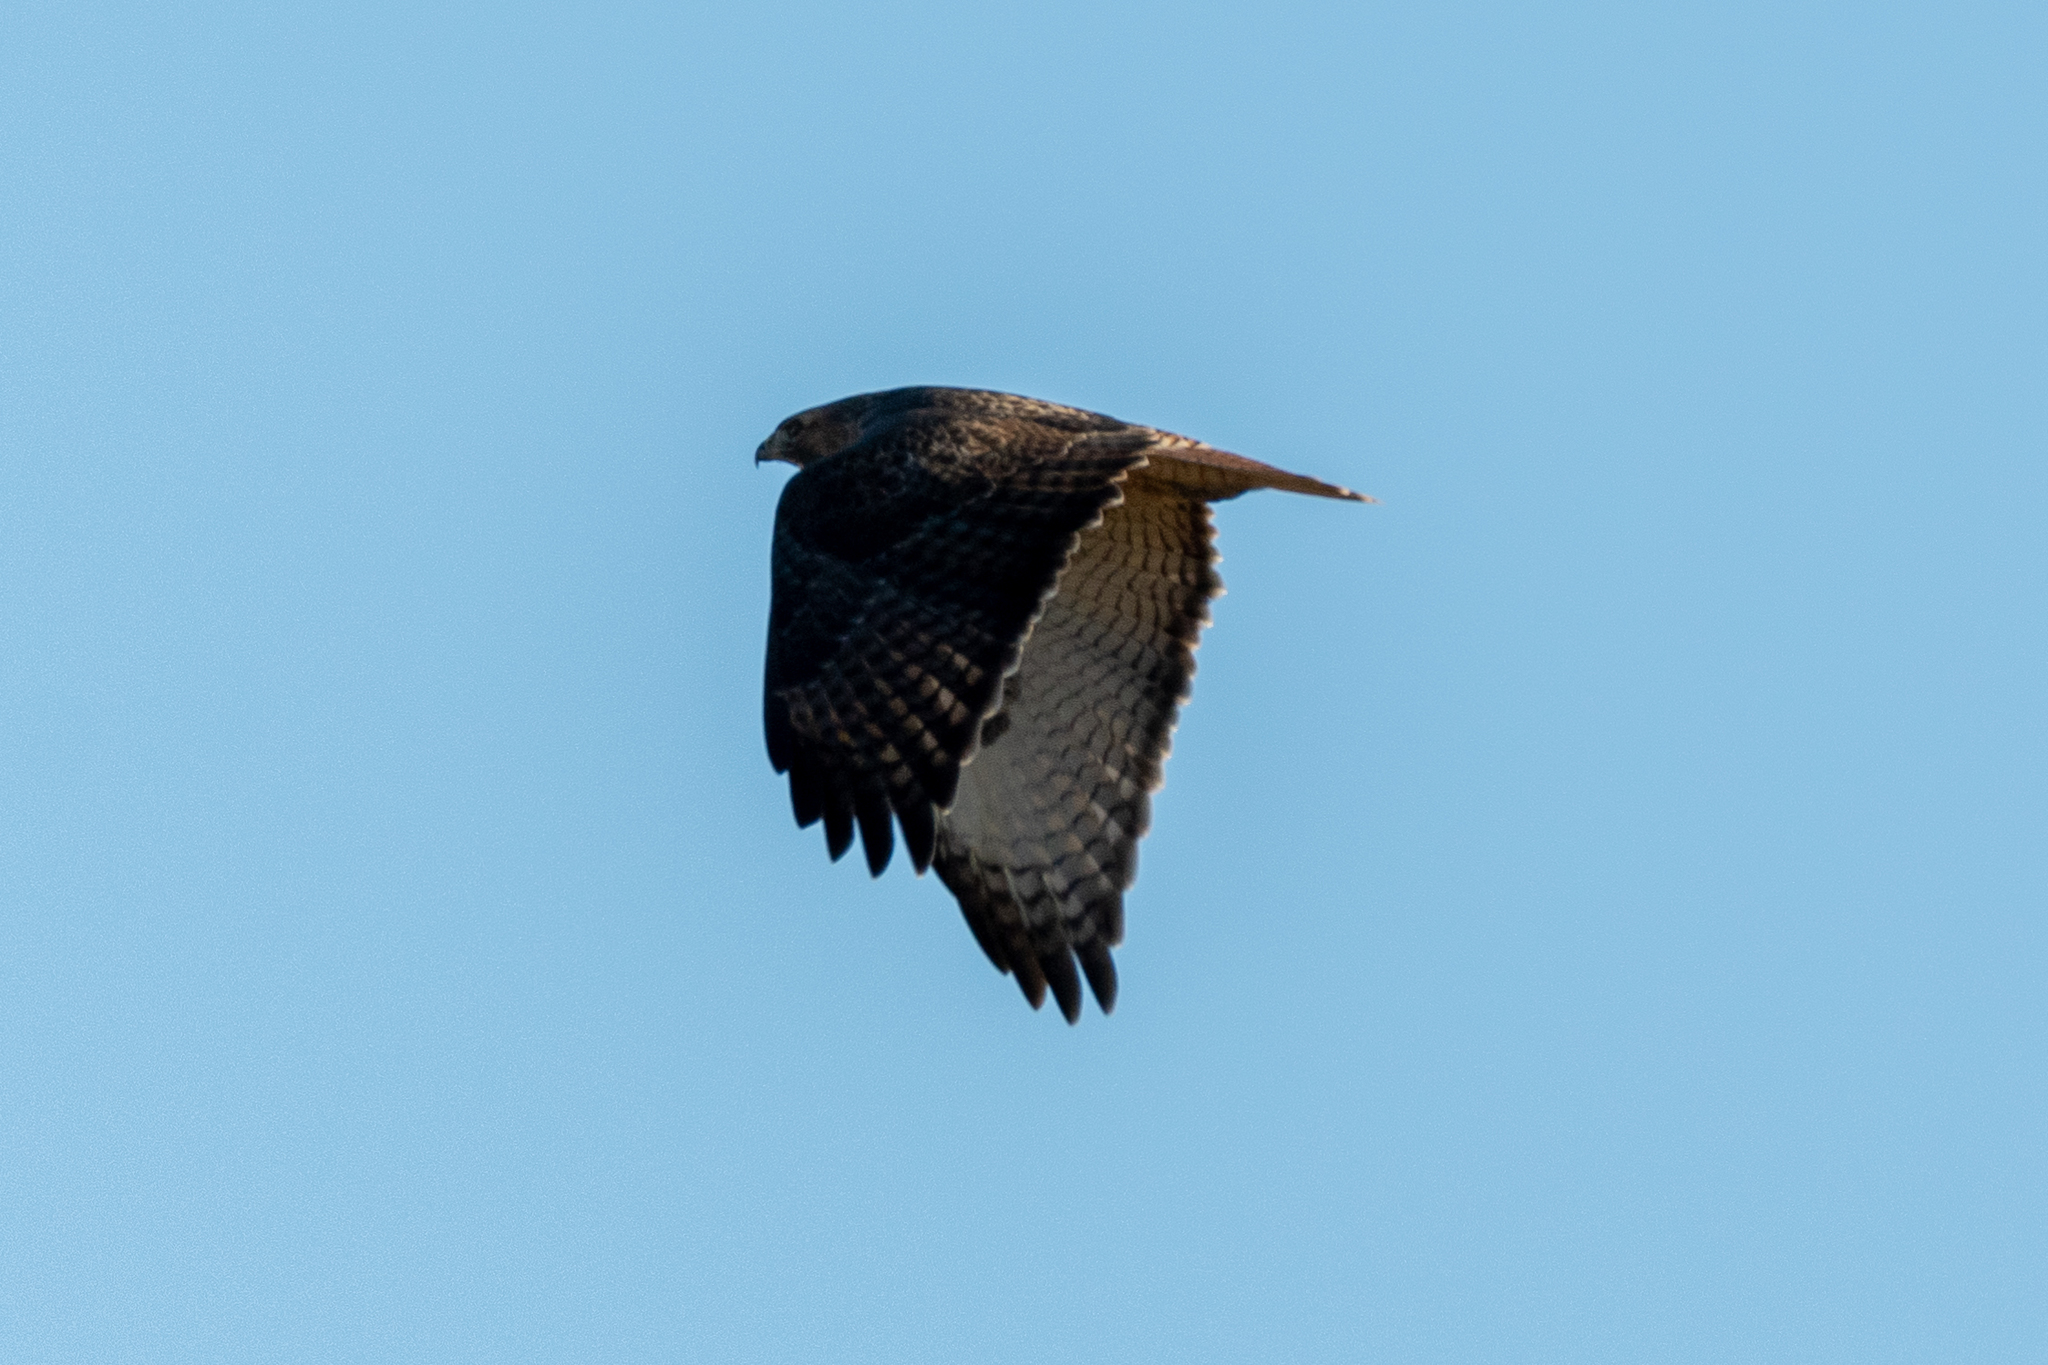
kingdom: Animalia
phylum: Chordata
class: Aves
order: Accipitriformes
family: Accipitridae
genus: Buteo
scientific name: Buteo jamaicensis
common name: Red-tailed hawk
